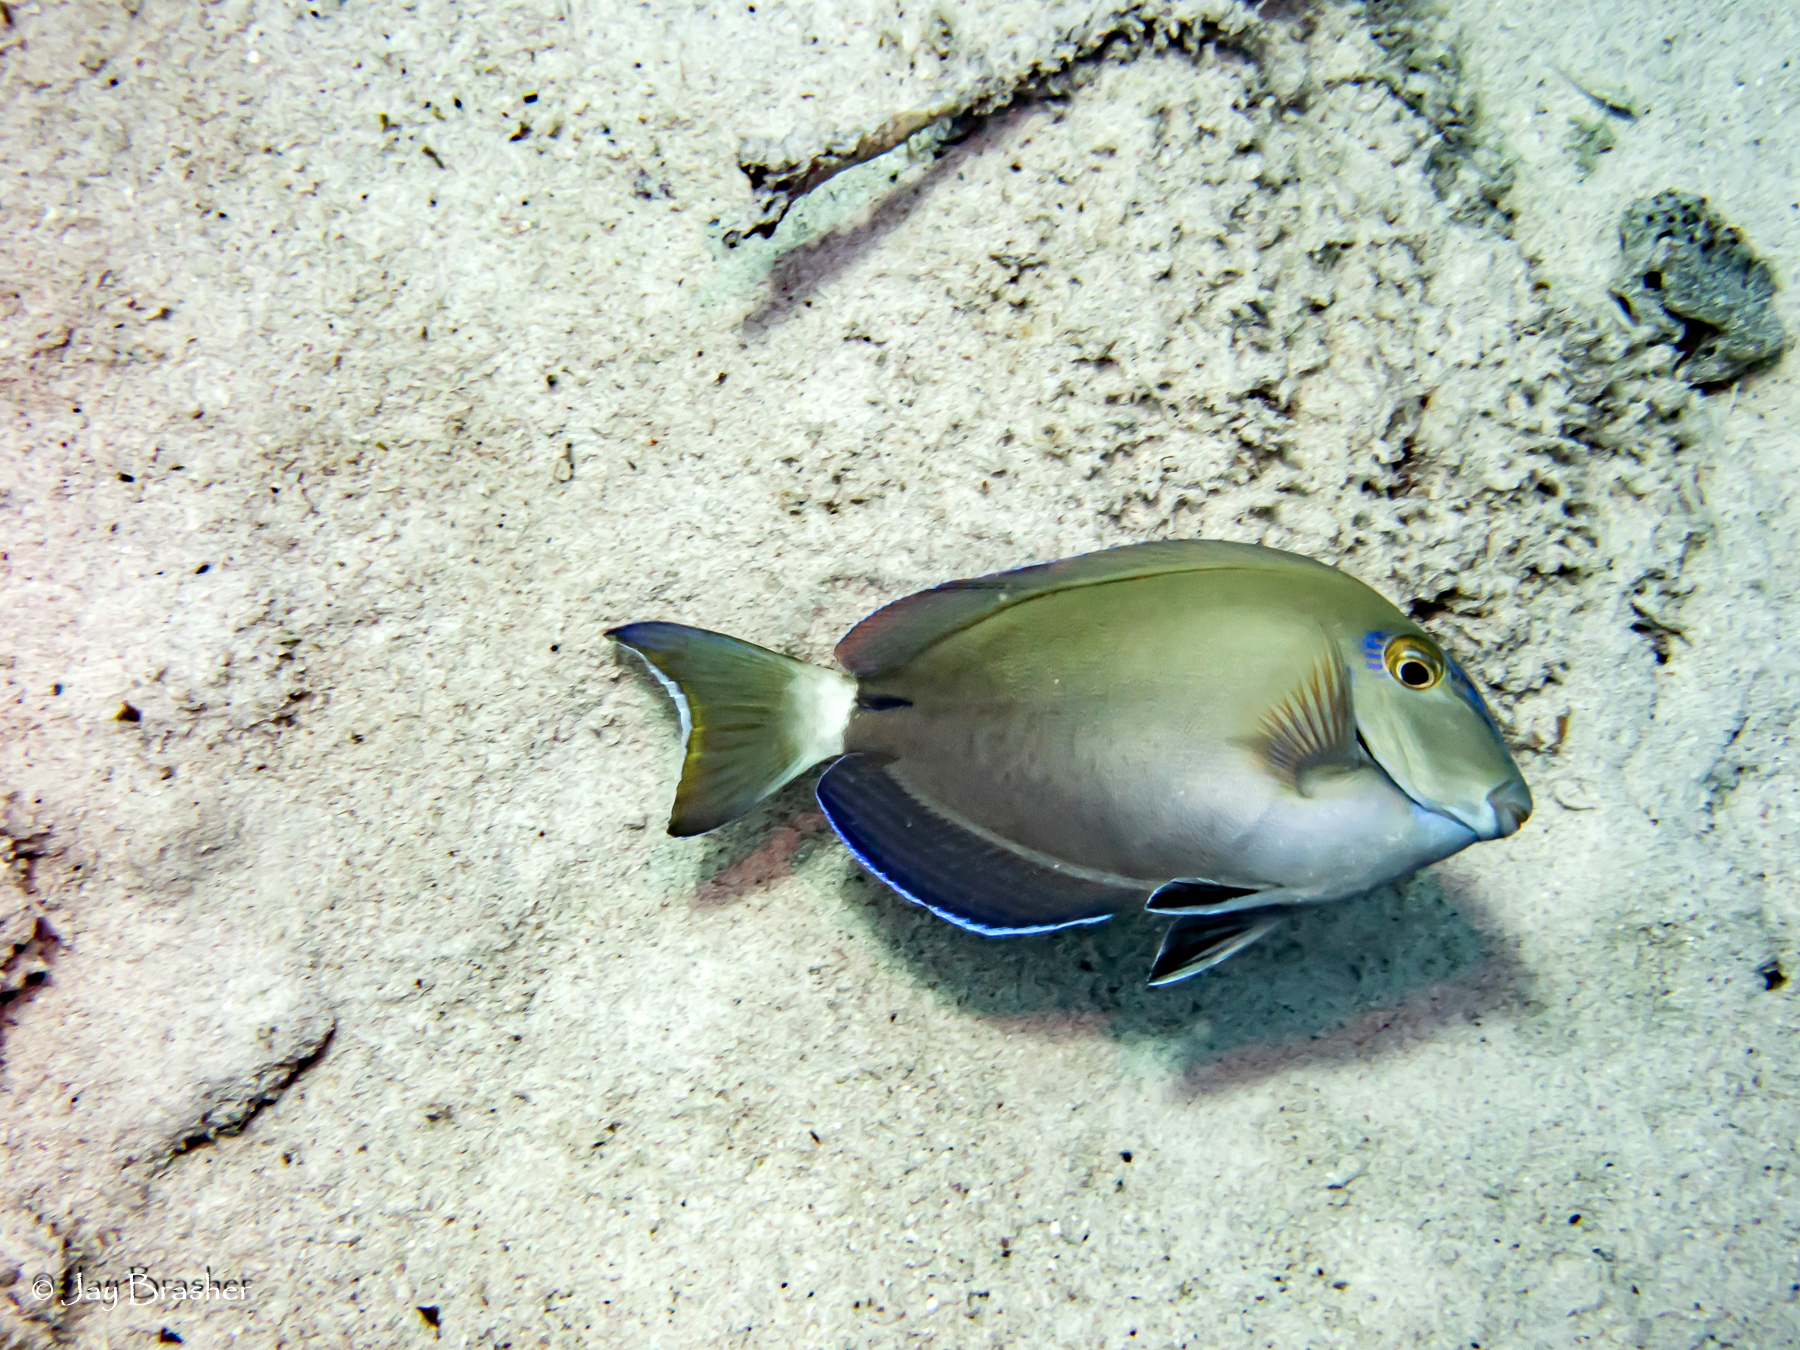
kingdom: Animalia
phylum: Chordata
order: Perciformes
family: Acanthuridae
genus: Acanthurus
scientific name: Acanthurus bahianus
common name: Ocean surgeon
